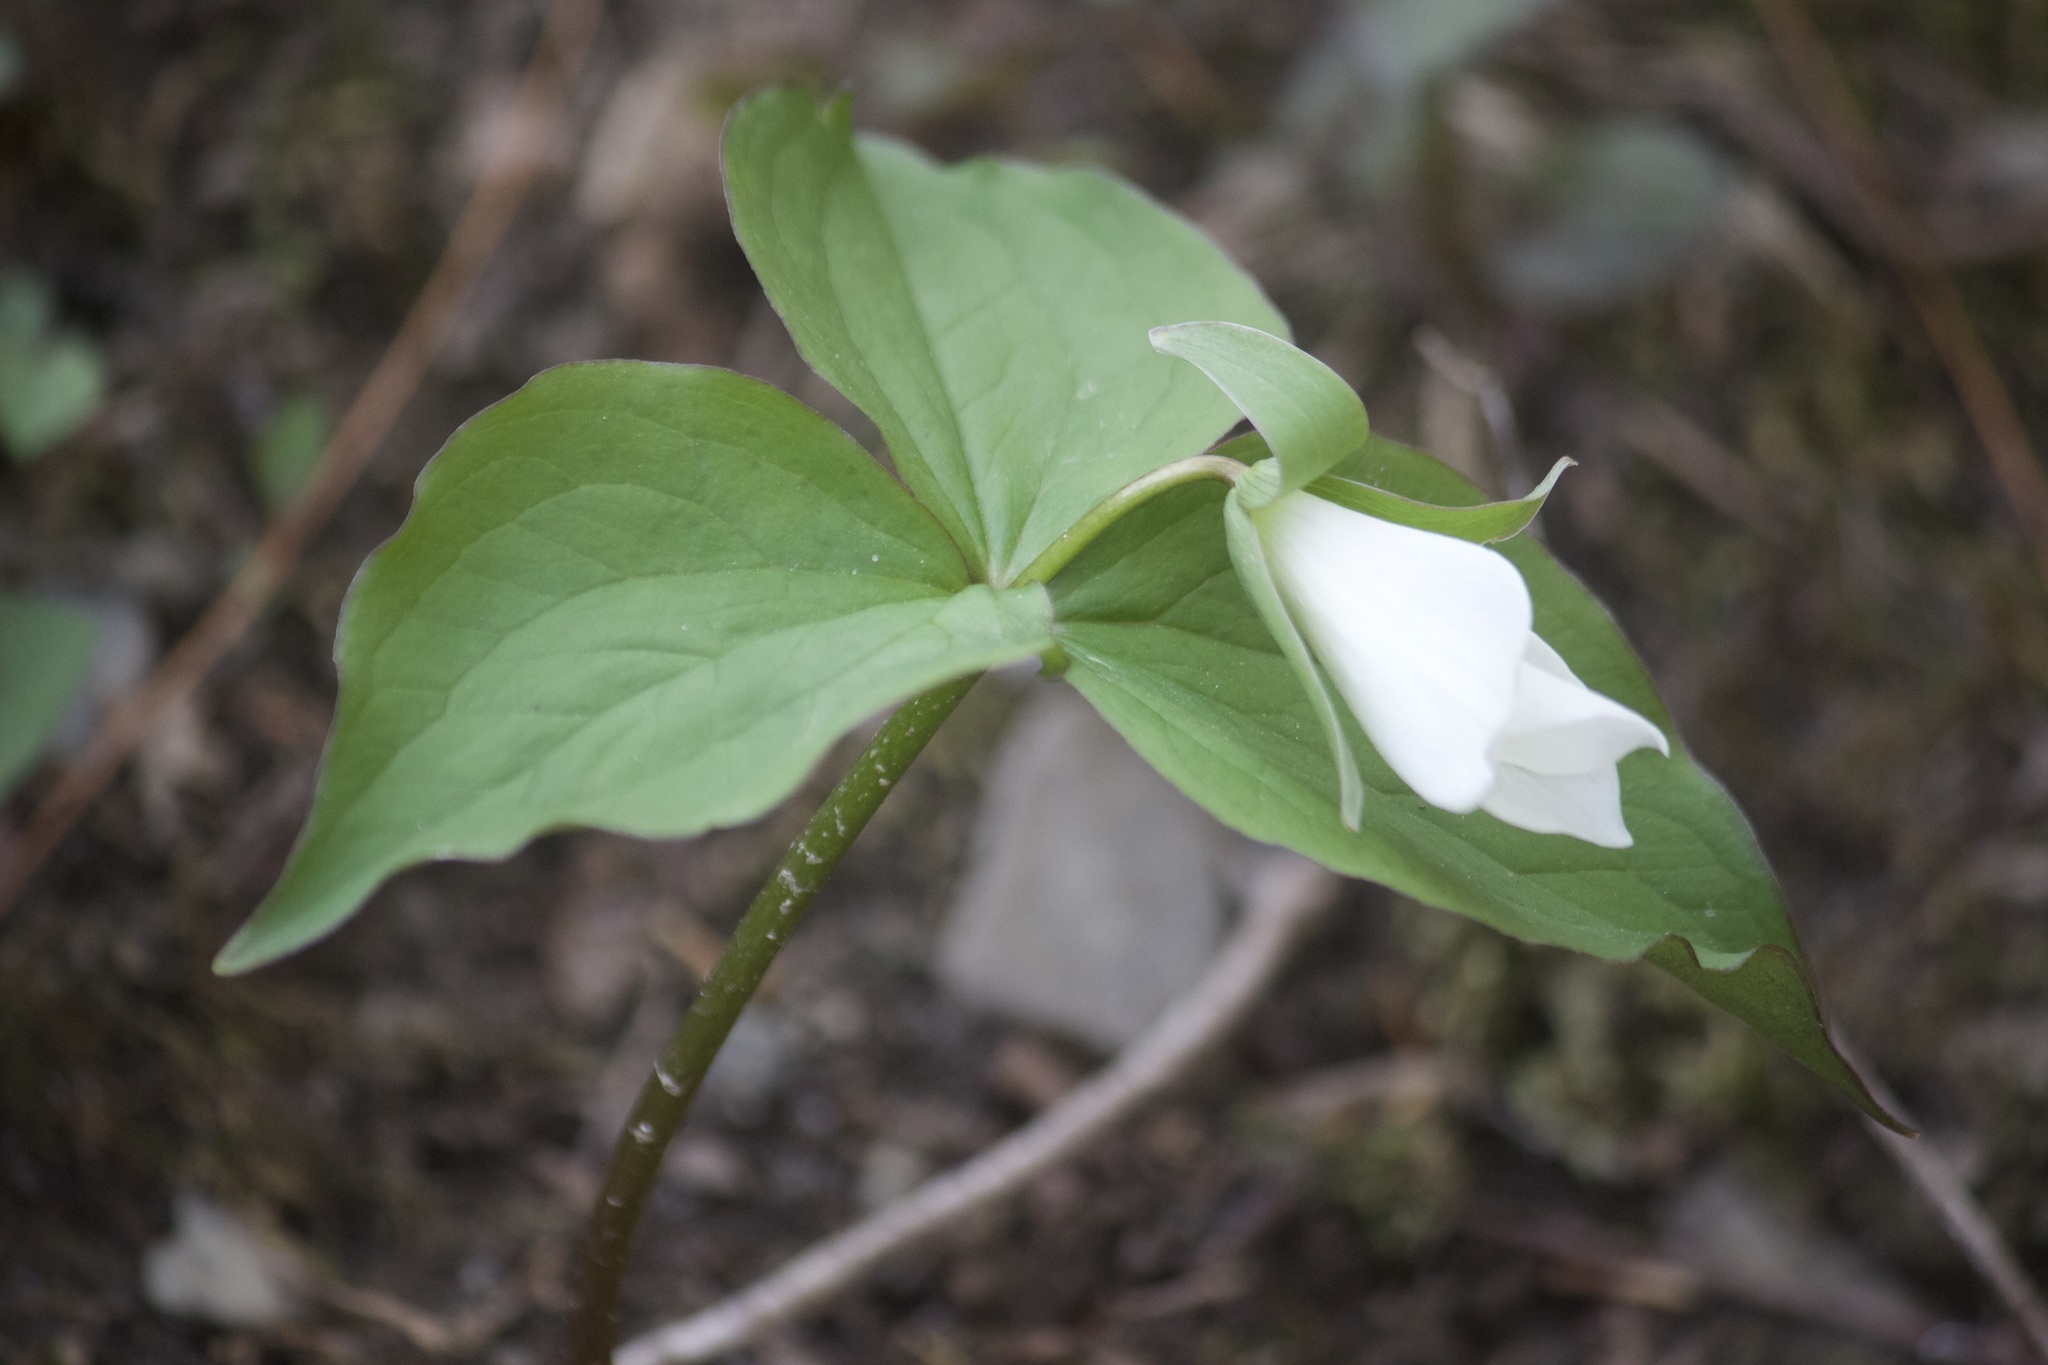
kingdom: Plantae
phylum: Tracheophyta
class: Liliopsida
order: Liliales
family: Melanthiaceae
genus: Trillium
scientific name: Trillium grandiflorum
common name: Great white trillium
